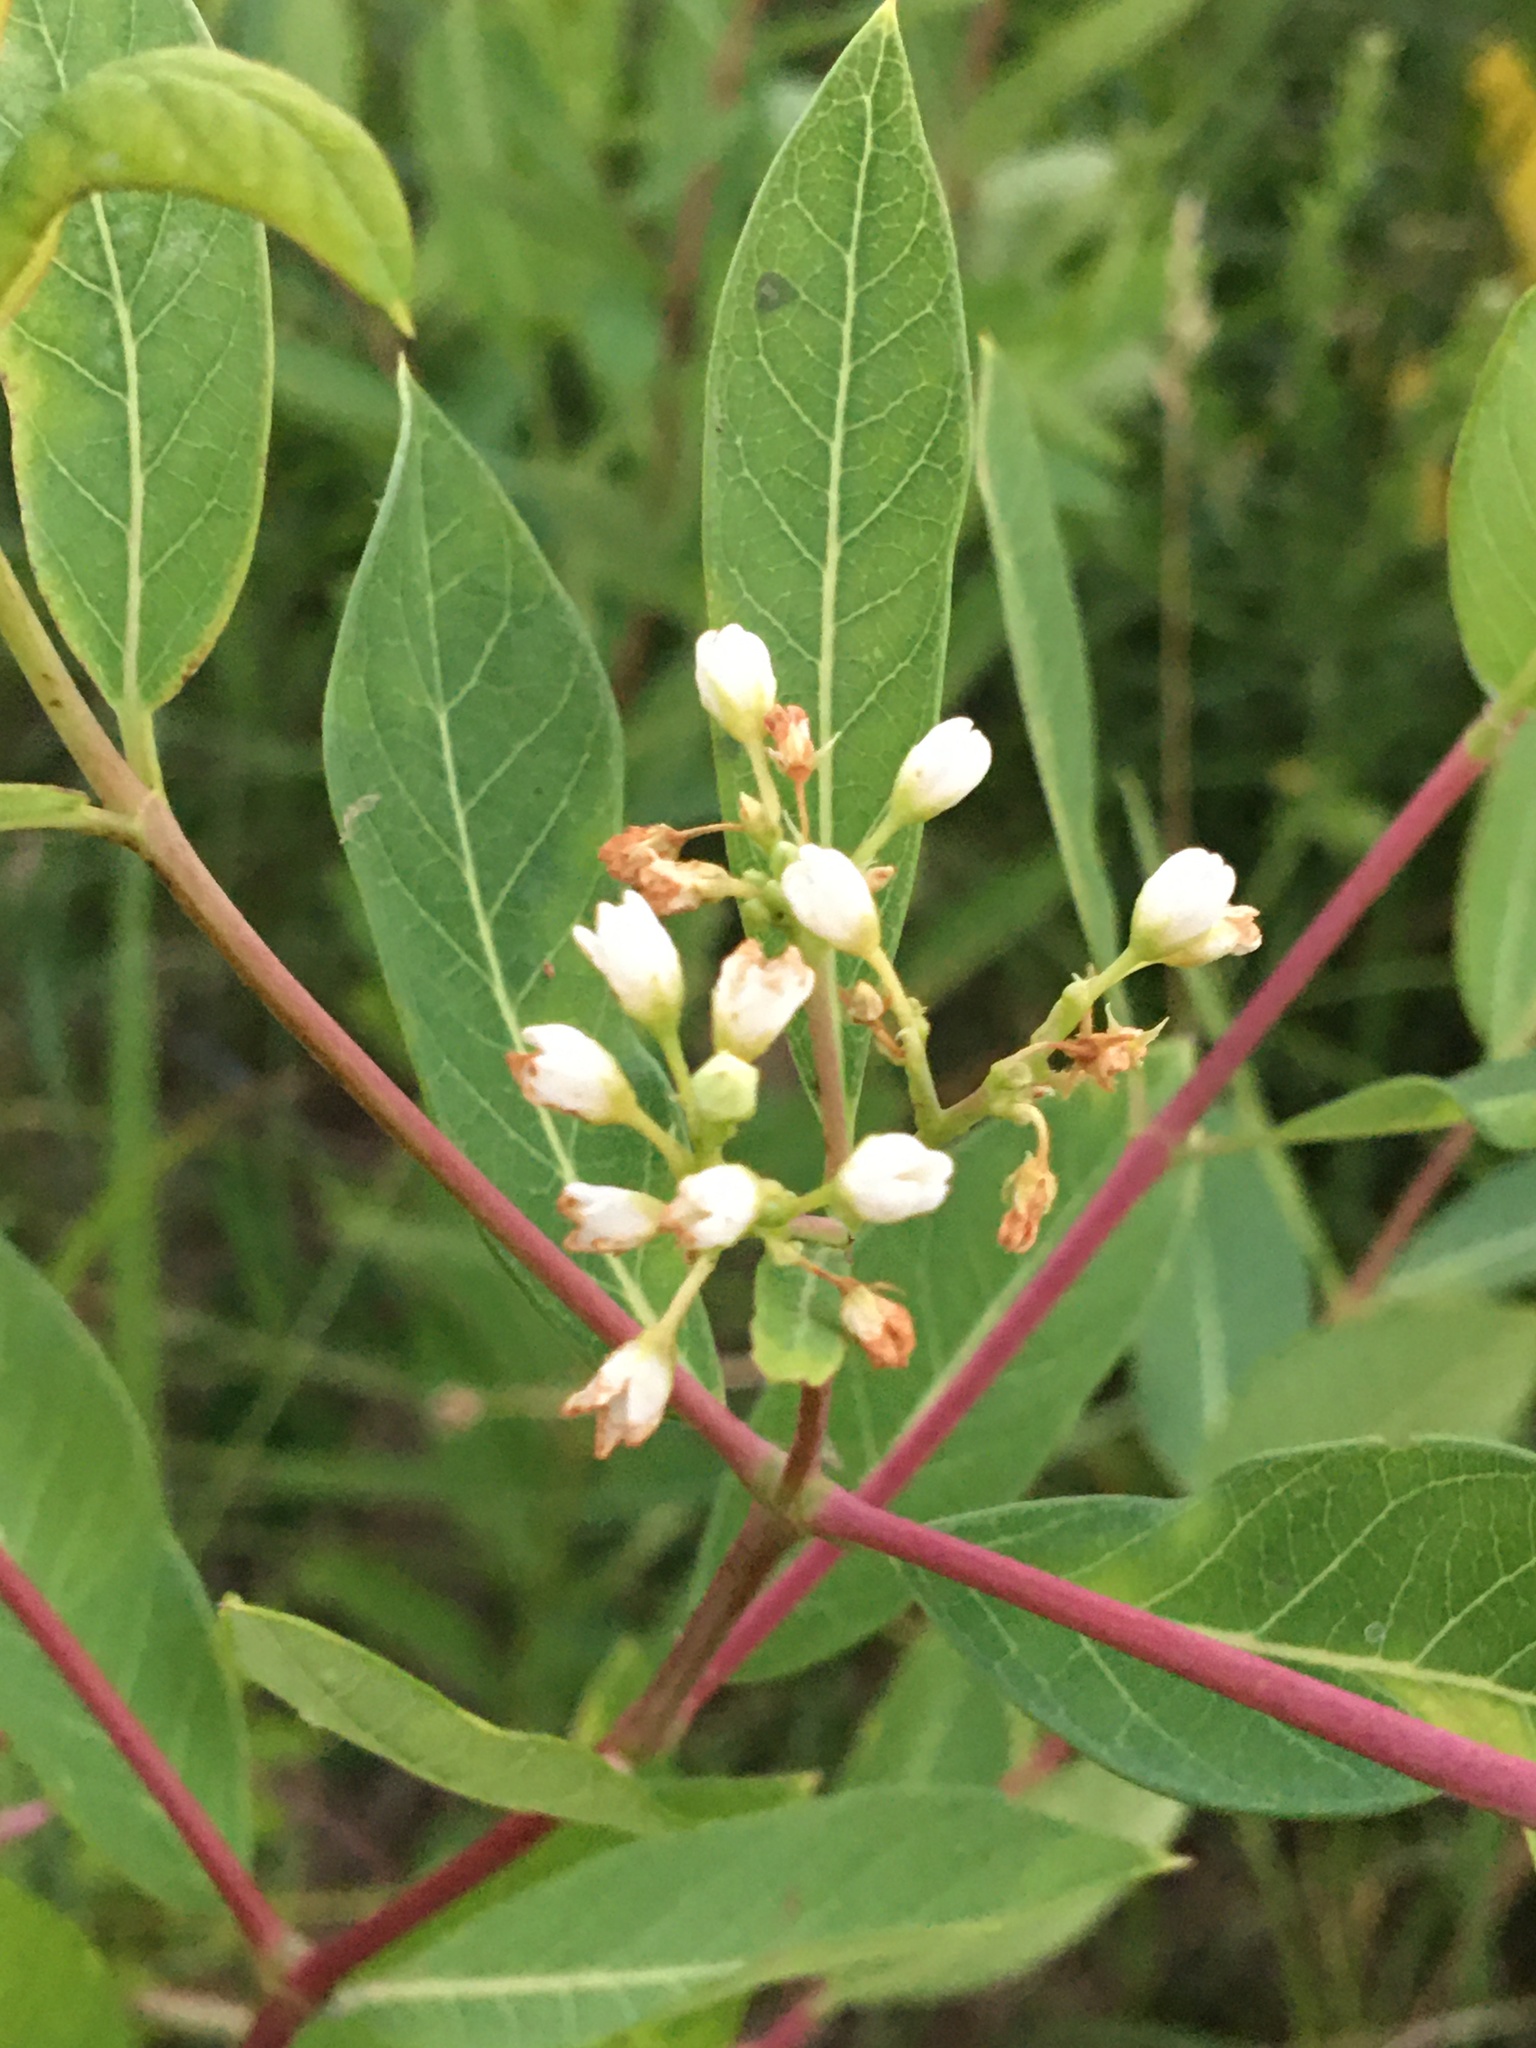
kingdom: Plantae
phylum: Tracheophyta
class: Magnoliopsida
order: Gentianales
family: Apocynaceae
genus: Apocynum
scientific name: Apocynum cannabinum
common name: Hemp dogbane
